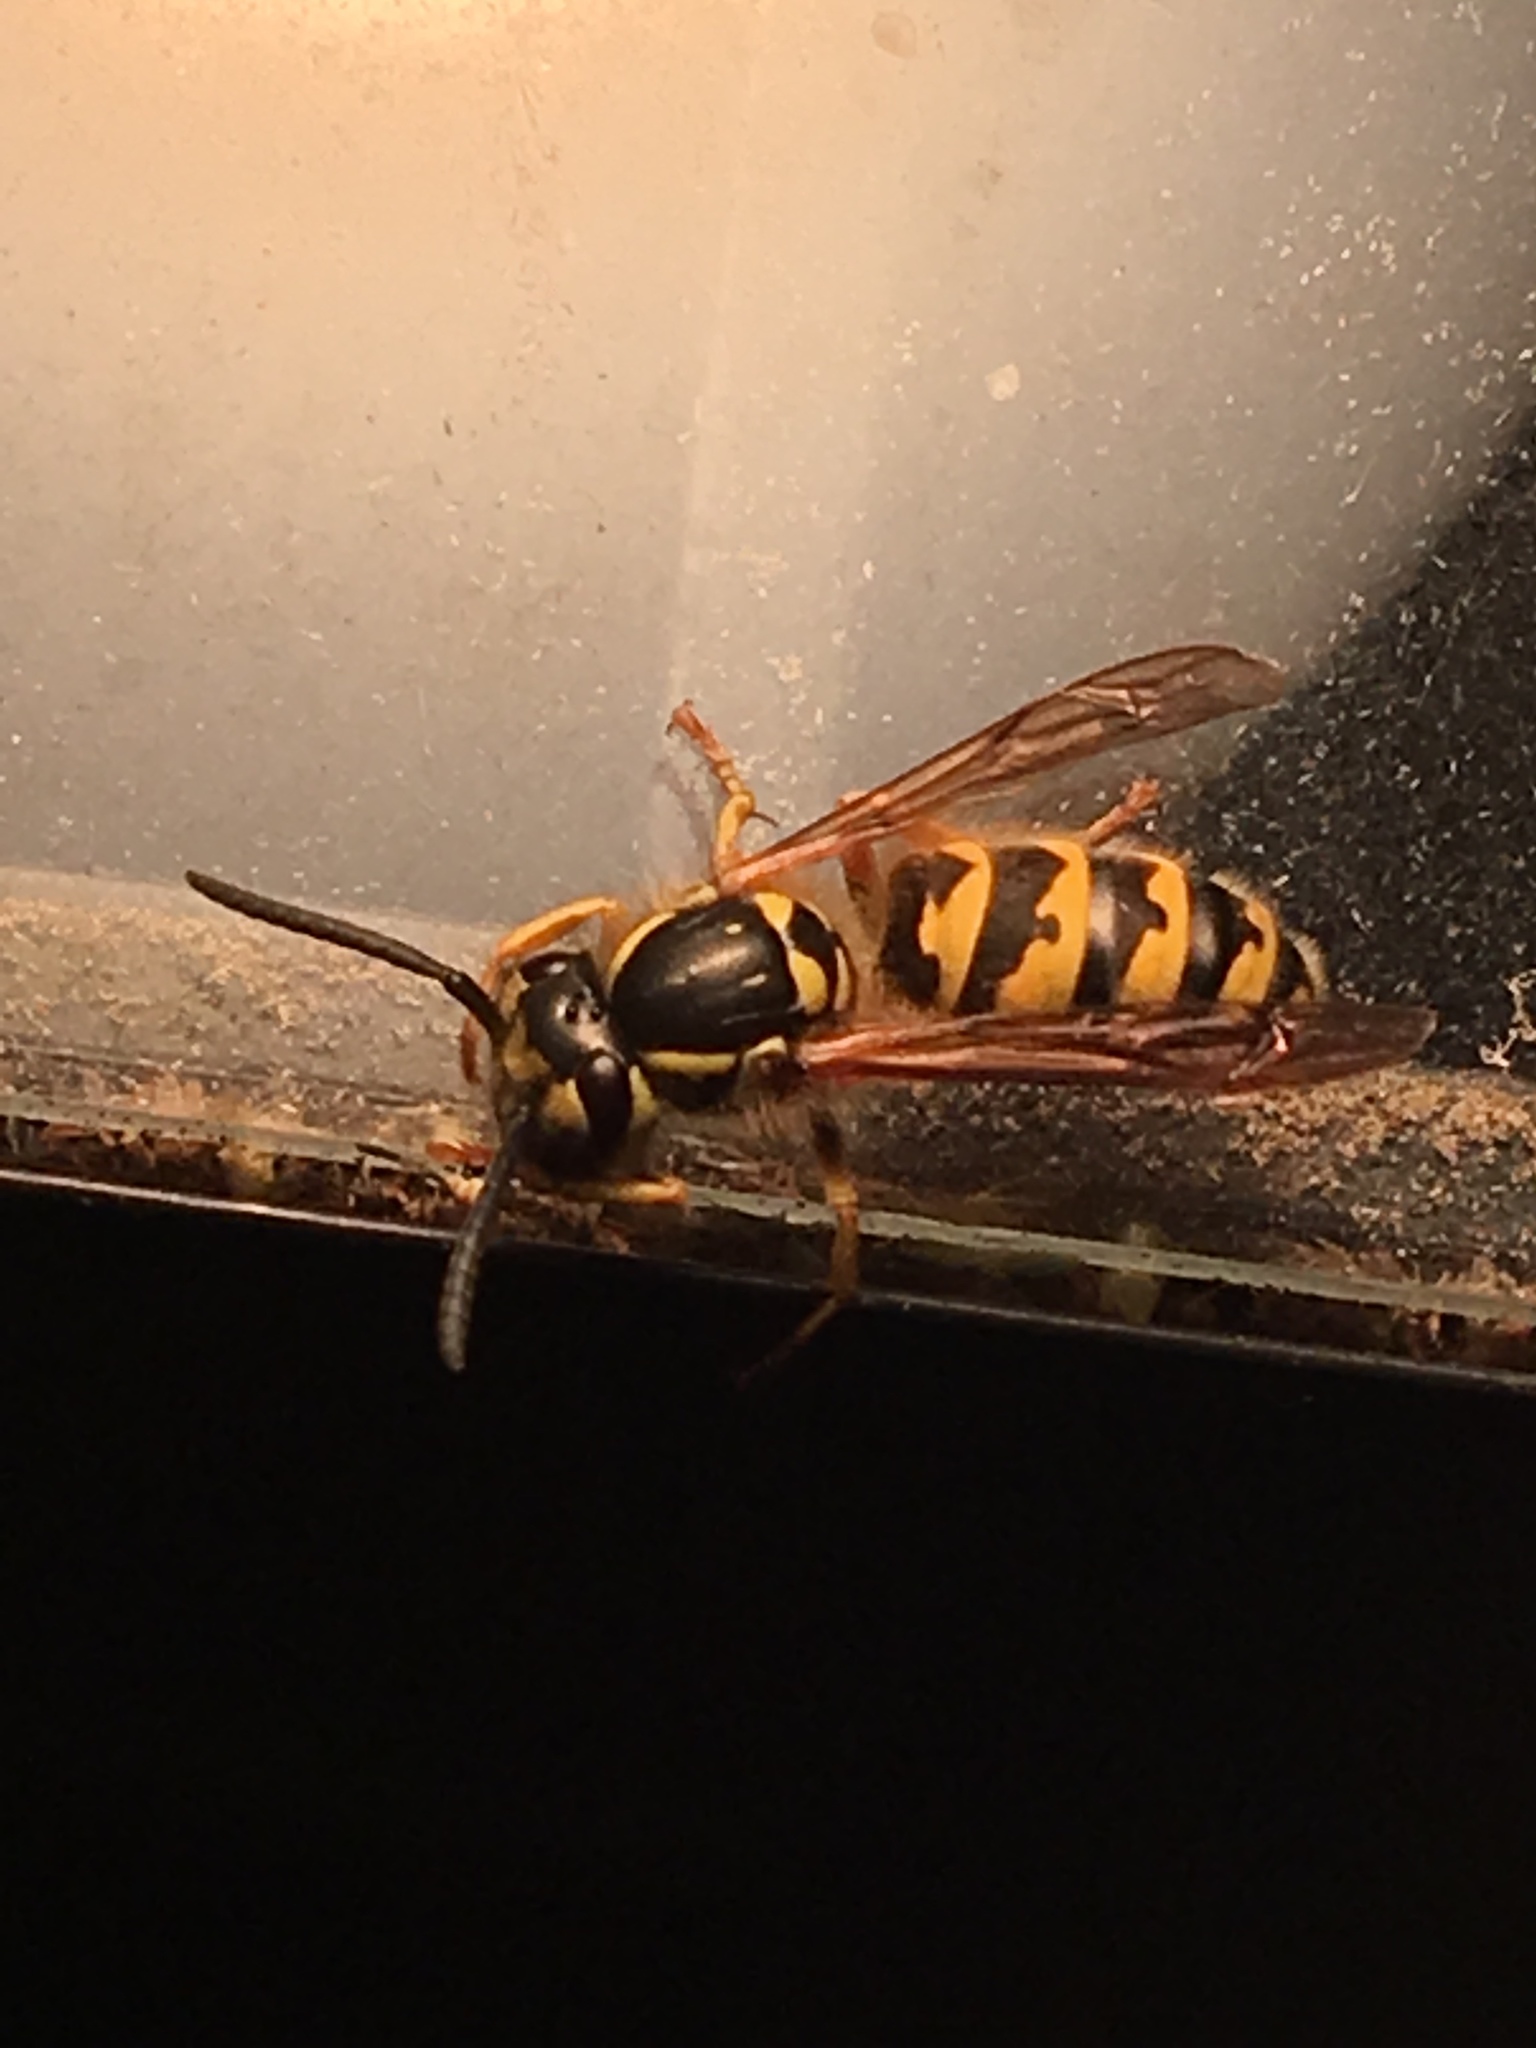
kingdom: Animalia
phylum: Arthropoda
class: Insecta
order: Hymenoptera
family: Vespidae
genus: Vespula
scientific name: Vespula flavopilosa
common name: Downy yellowjacket
